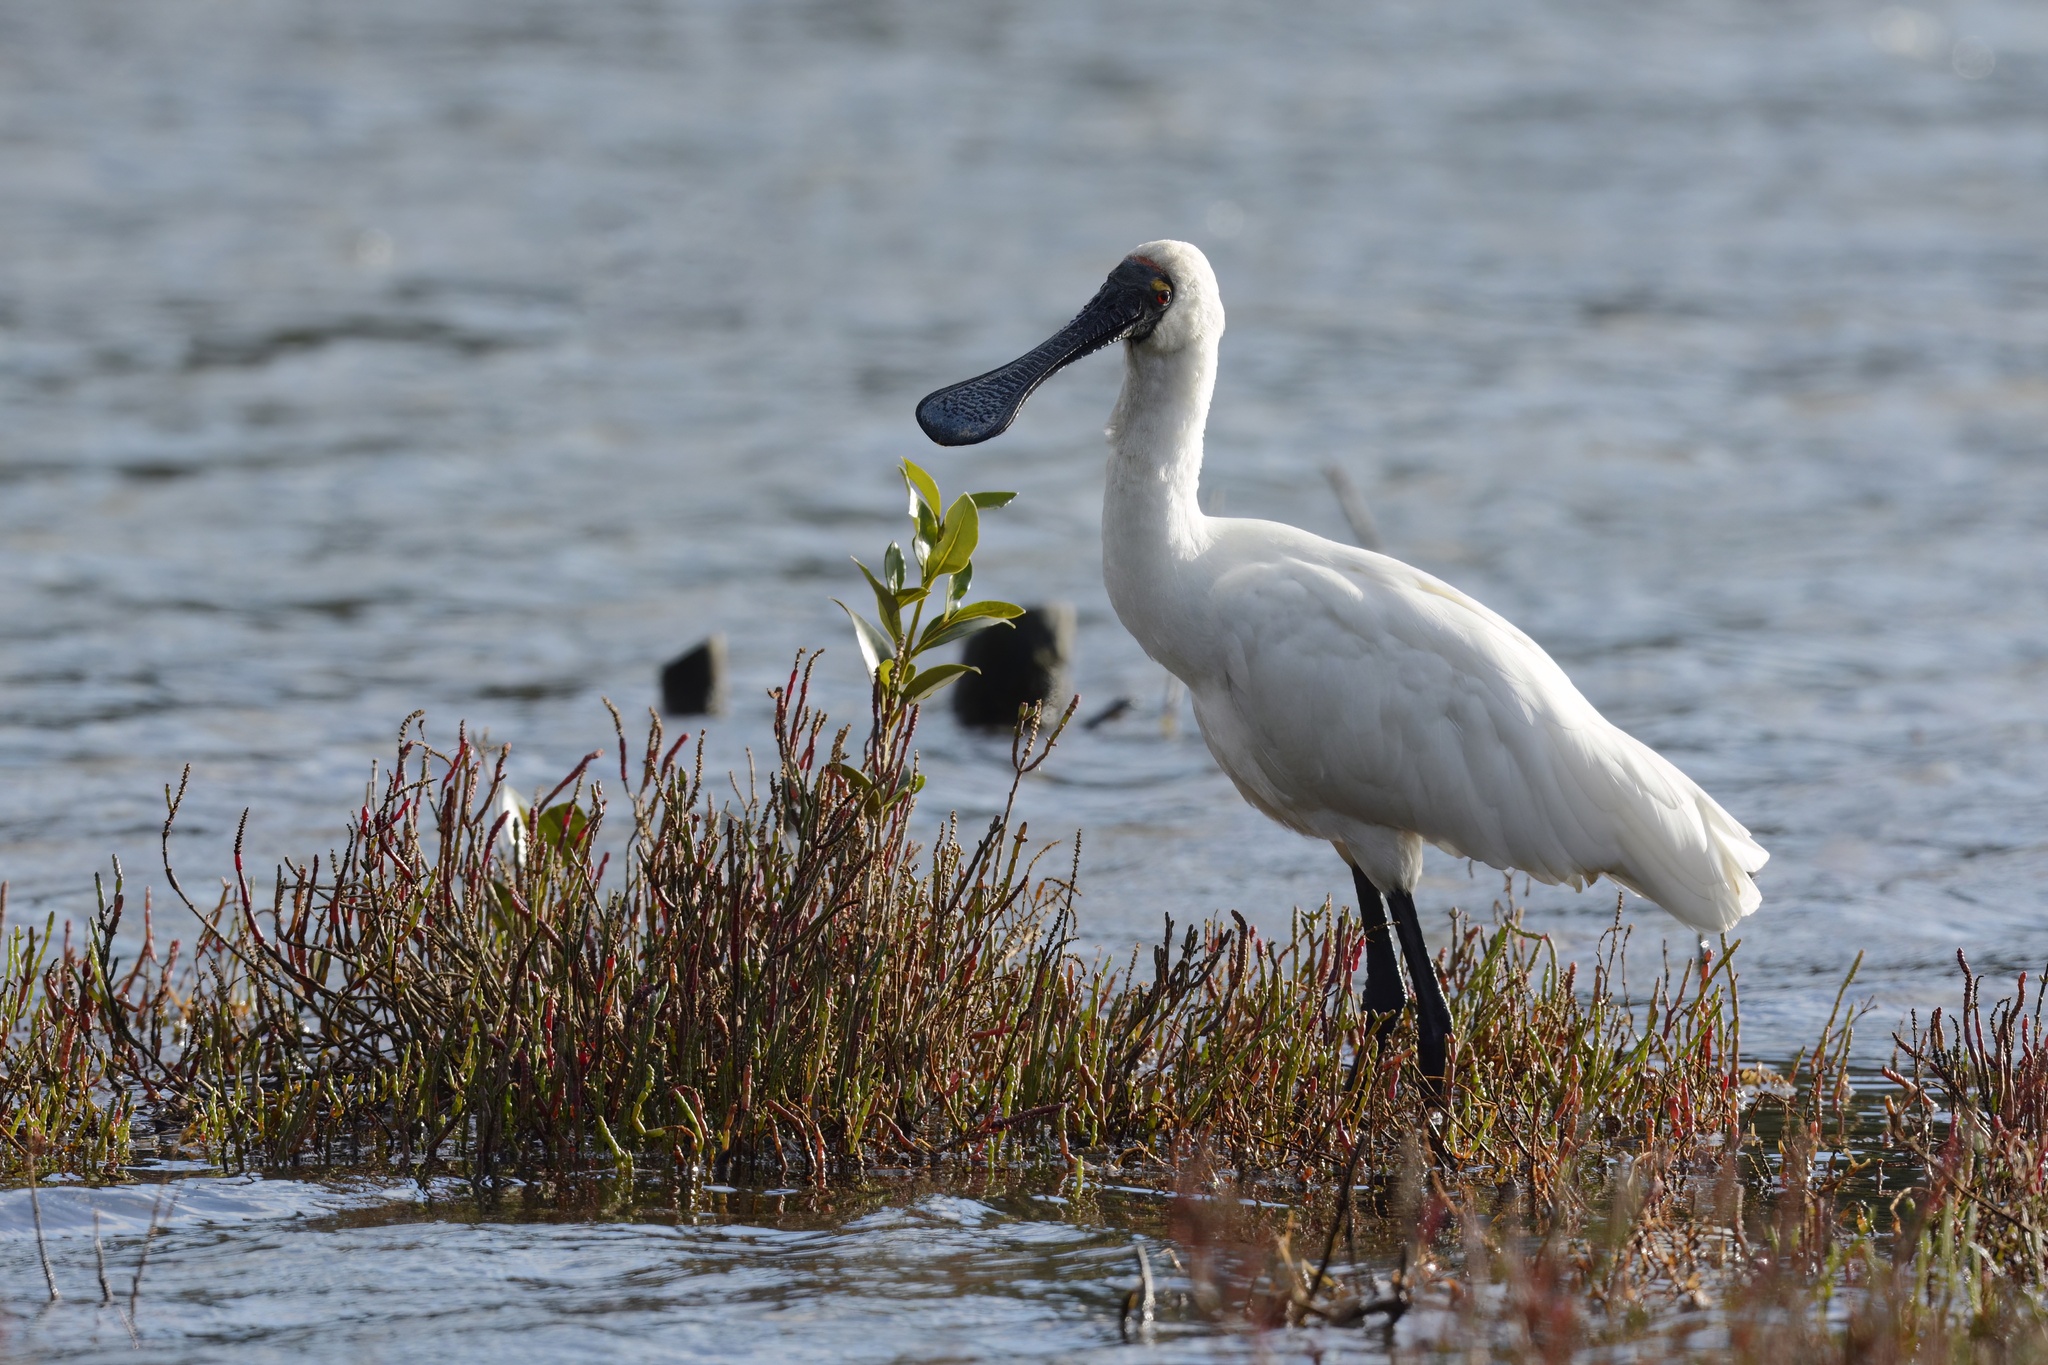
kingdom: Animalia
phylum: Chordata
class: Aves
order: Pelecaniformes
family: Threskiornithidae
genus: Platalea
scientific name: Platalea regia
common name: Royal spoonbill
